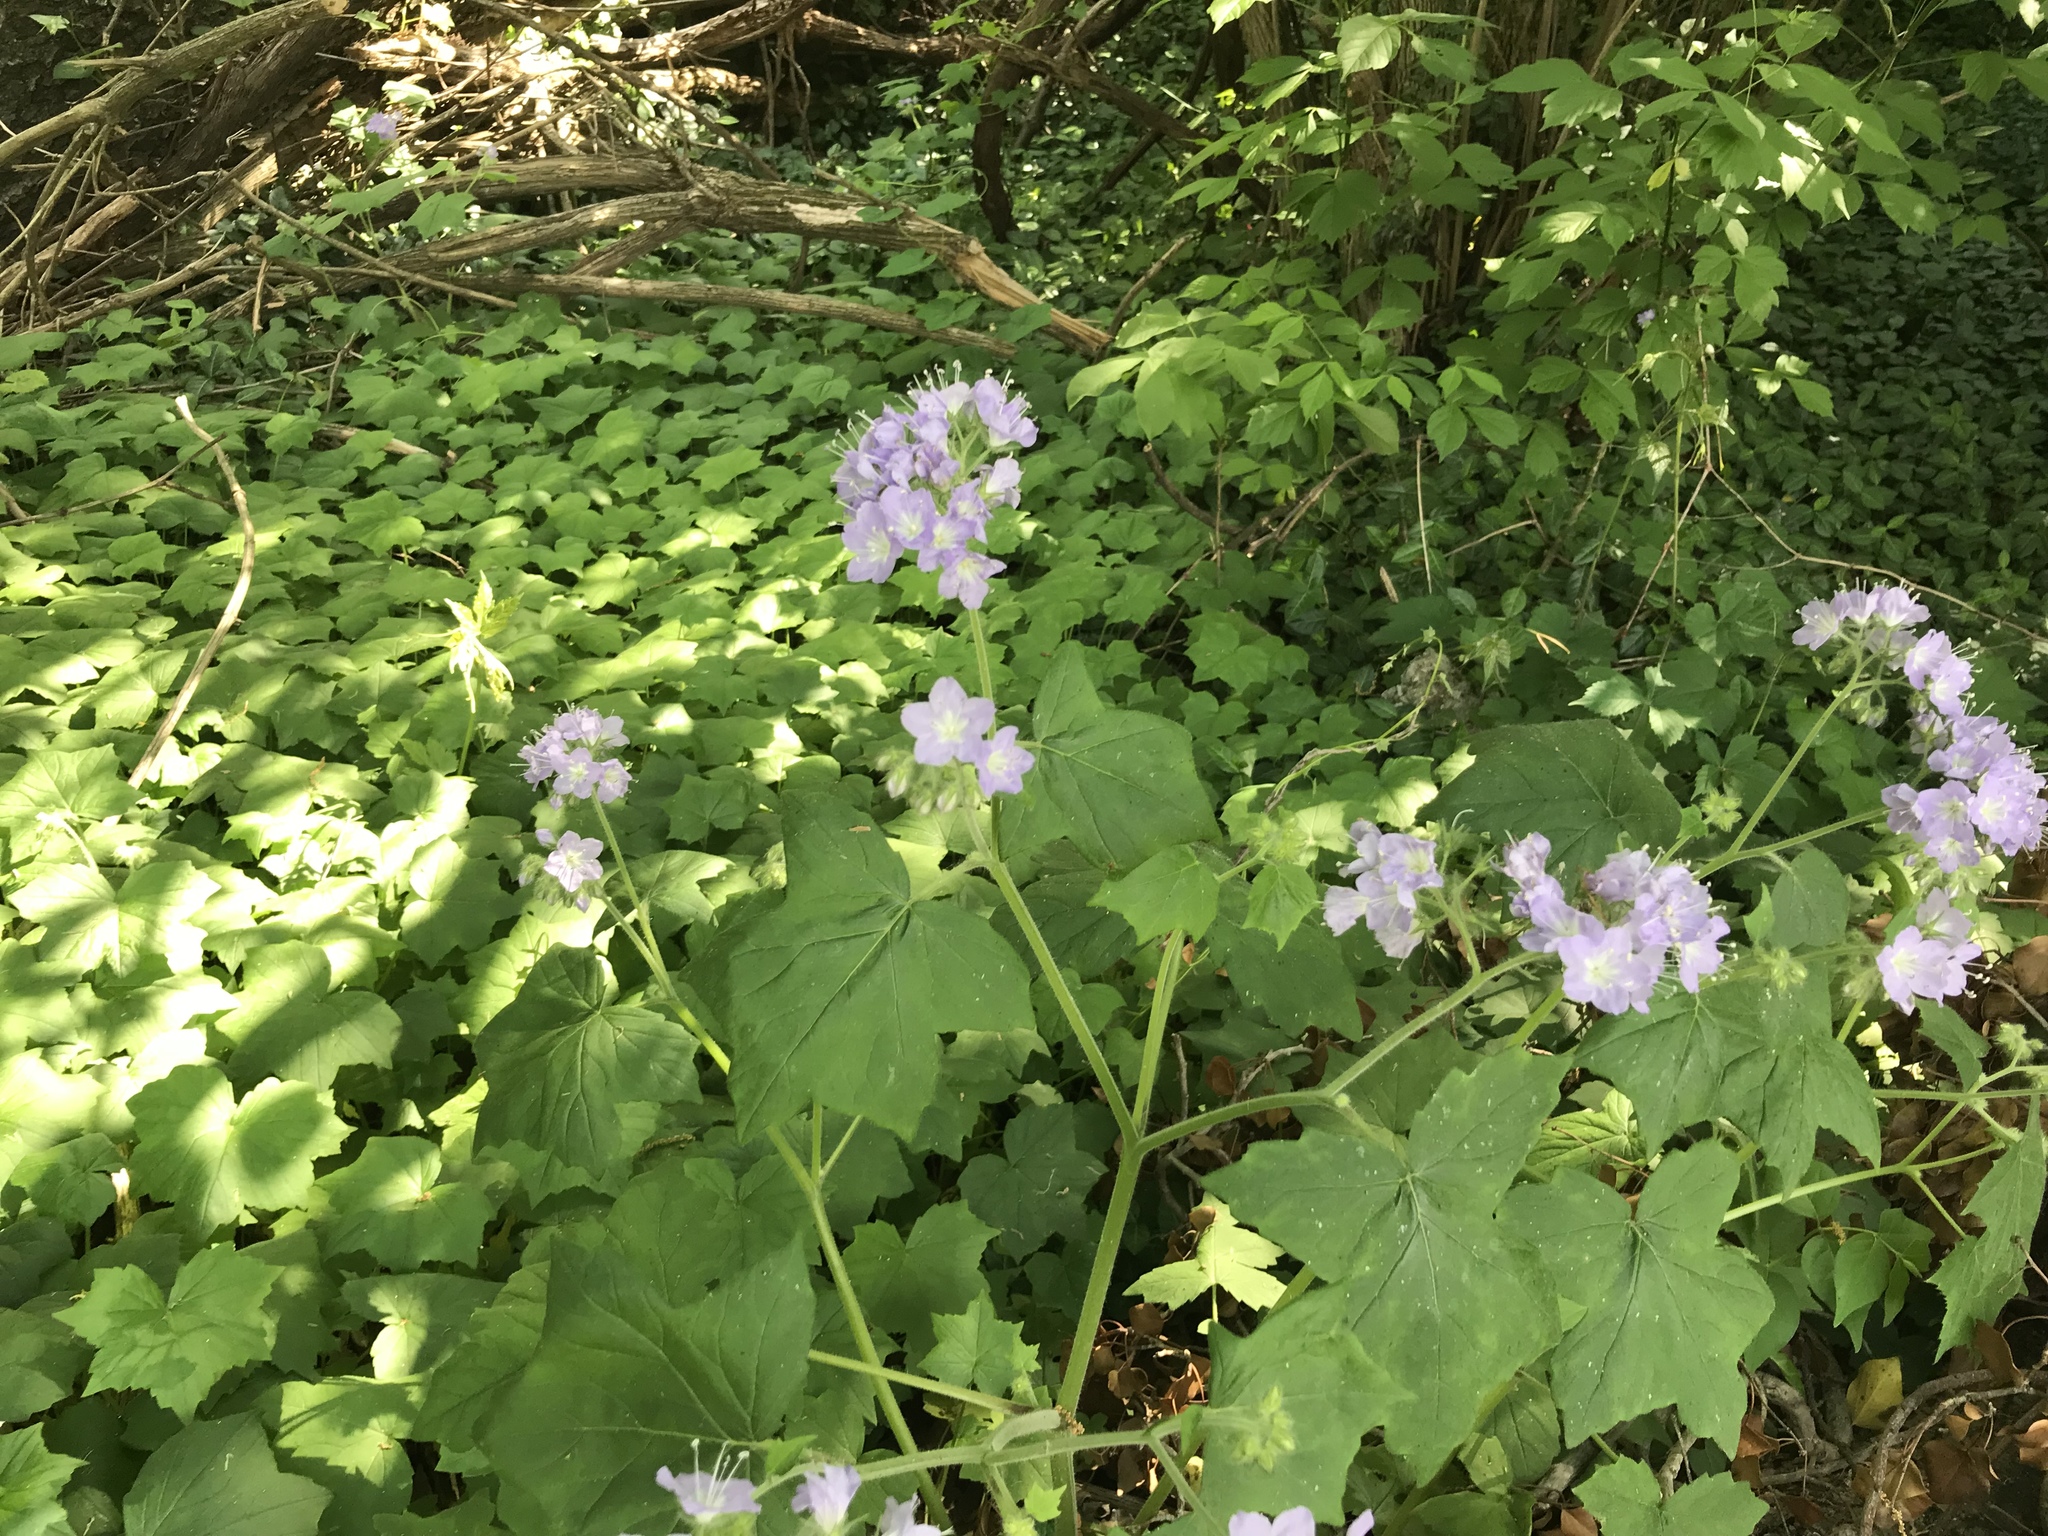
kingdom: Plantae
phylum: Tracheophyta
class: Magnoliopsida
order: Boraginales
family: Hydrophyllaceae
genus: Hydrophyllum
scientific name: Hydrophyllum appendiculatum
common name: Appendaged waterleaf
